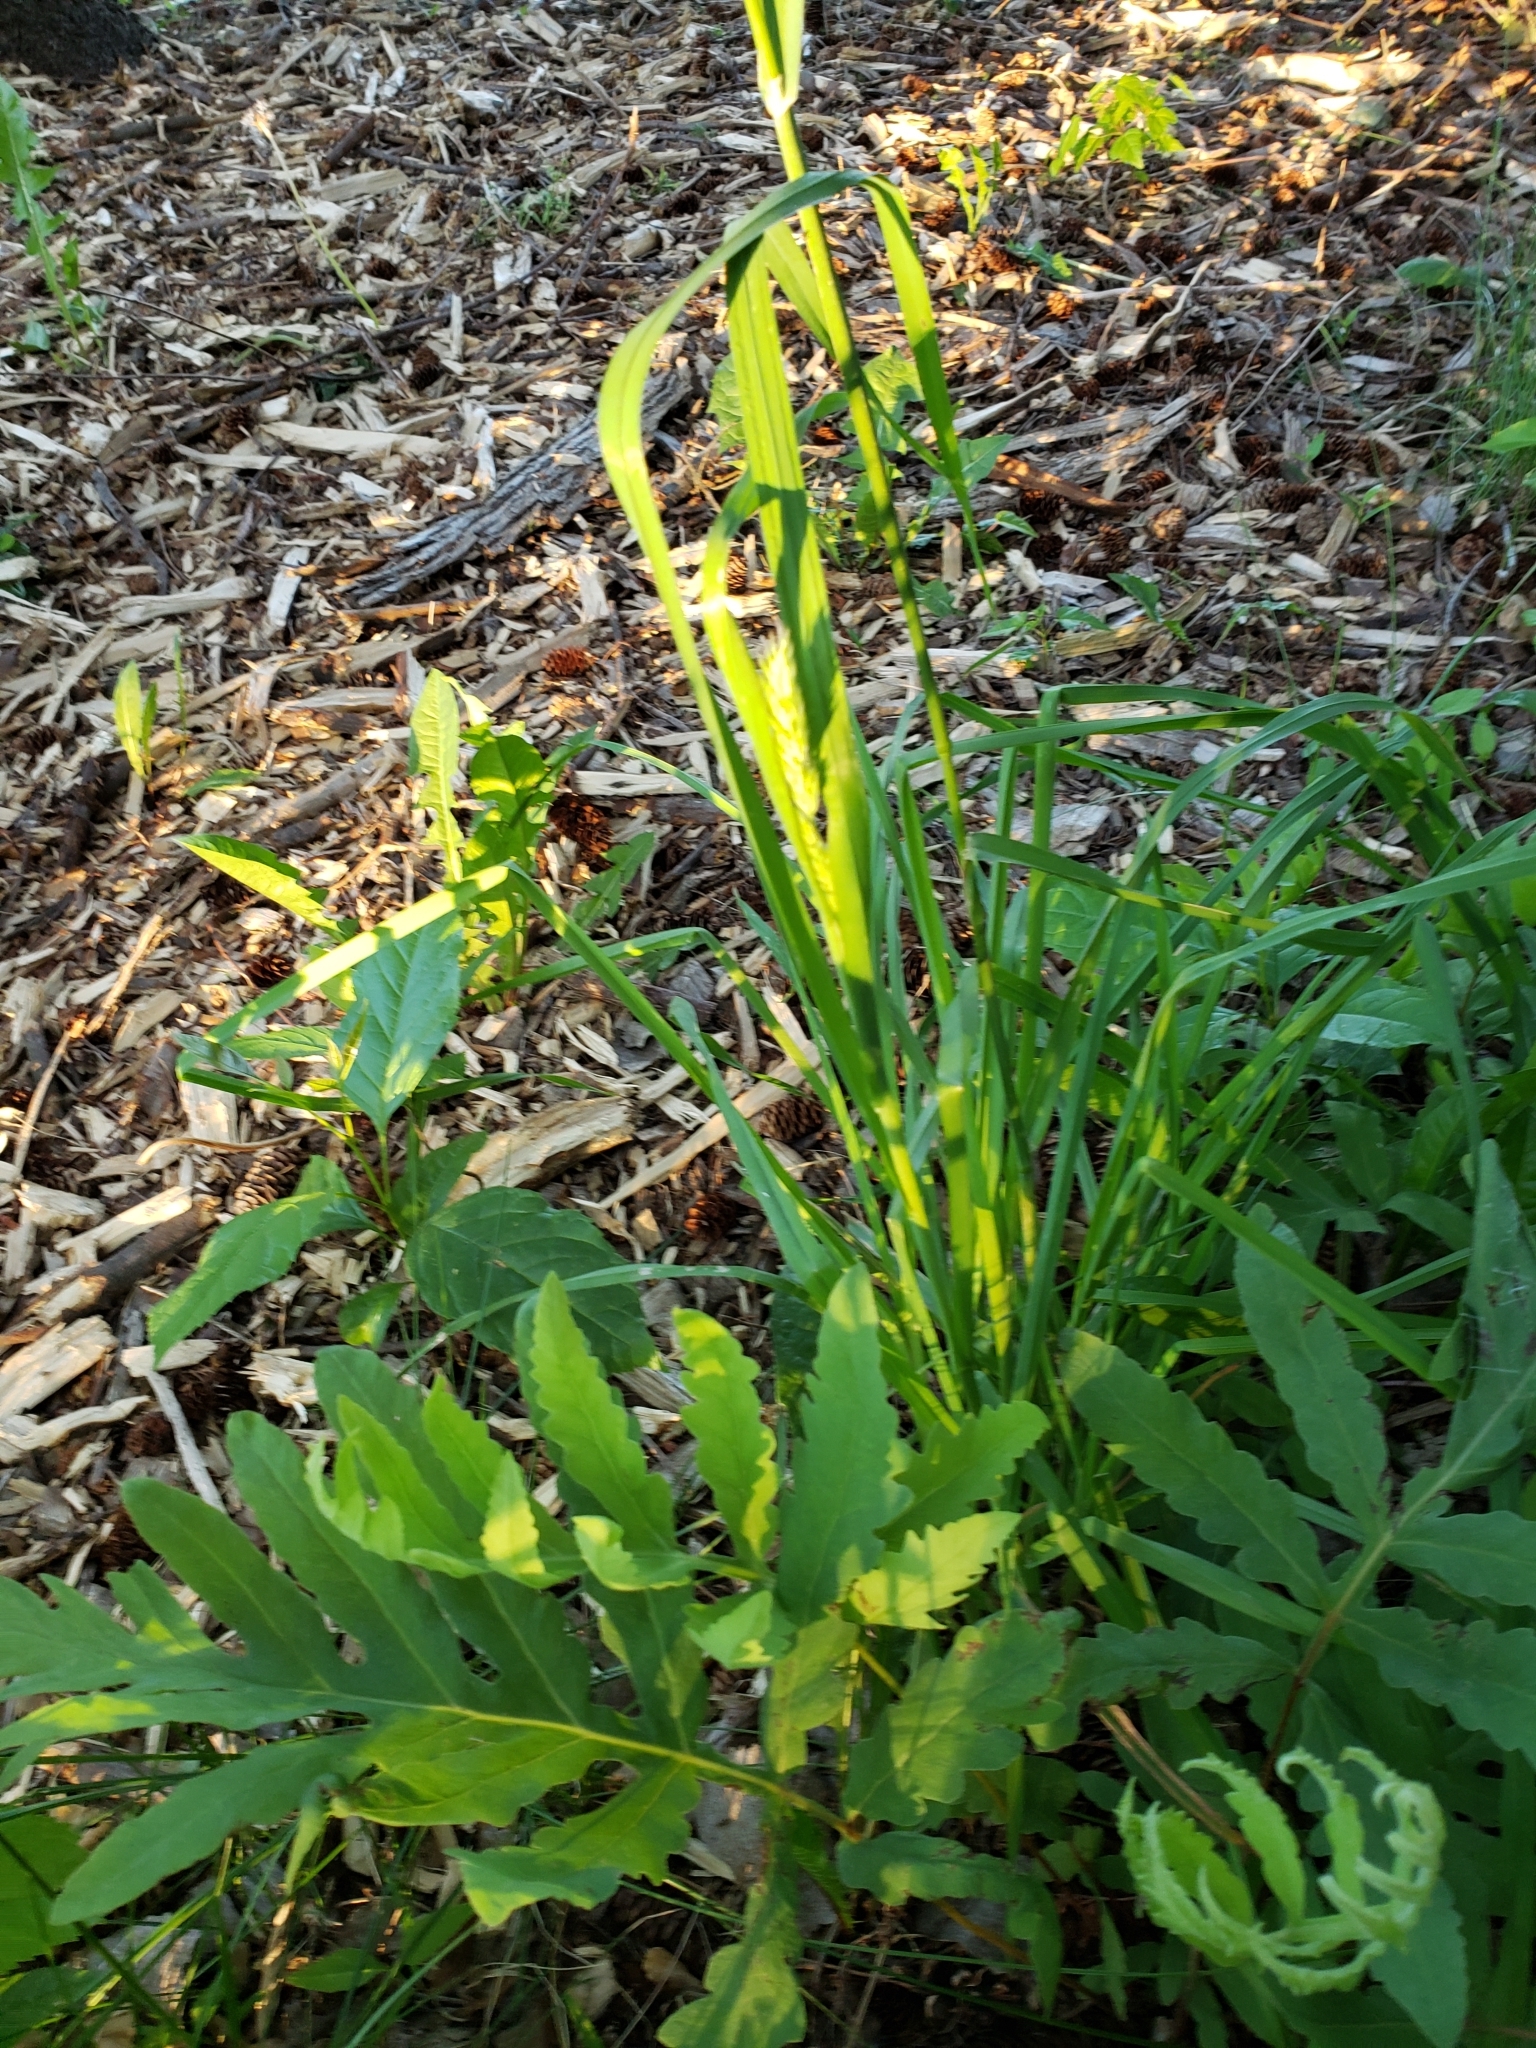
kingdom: Plantae
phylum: Tracheophyta
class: Liliopsida
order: Poales
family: Poaceae
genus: Dactylis
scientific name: Dactylis glomerata
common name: Orchardgrass
